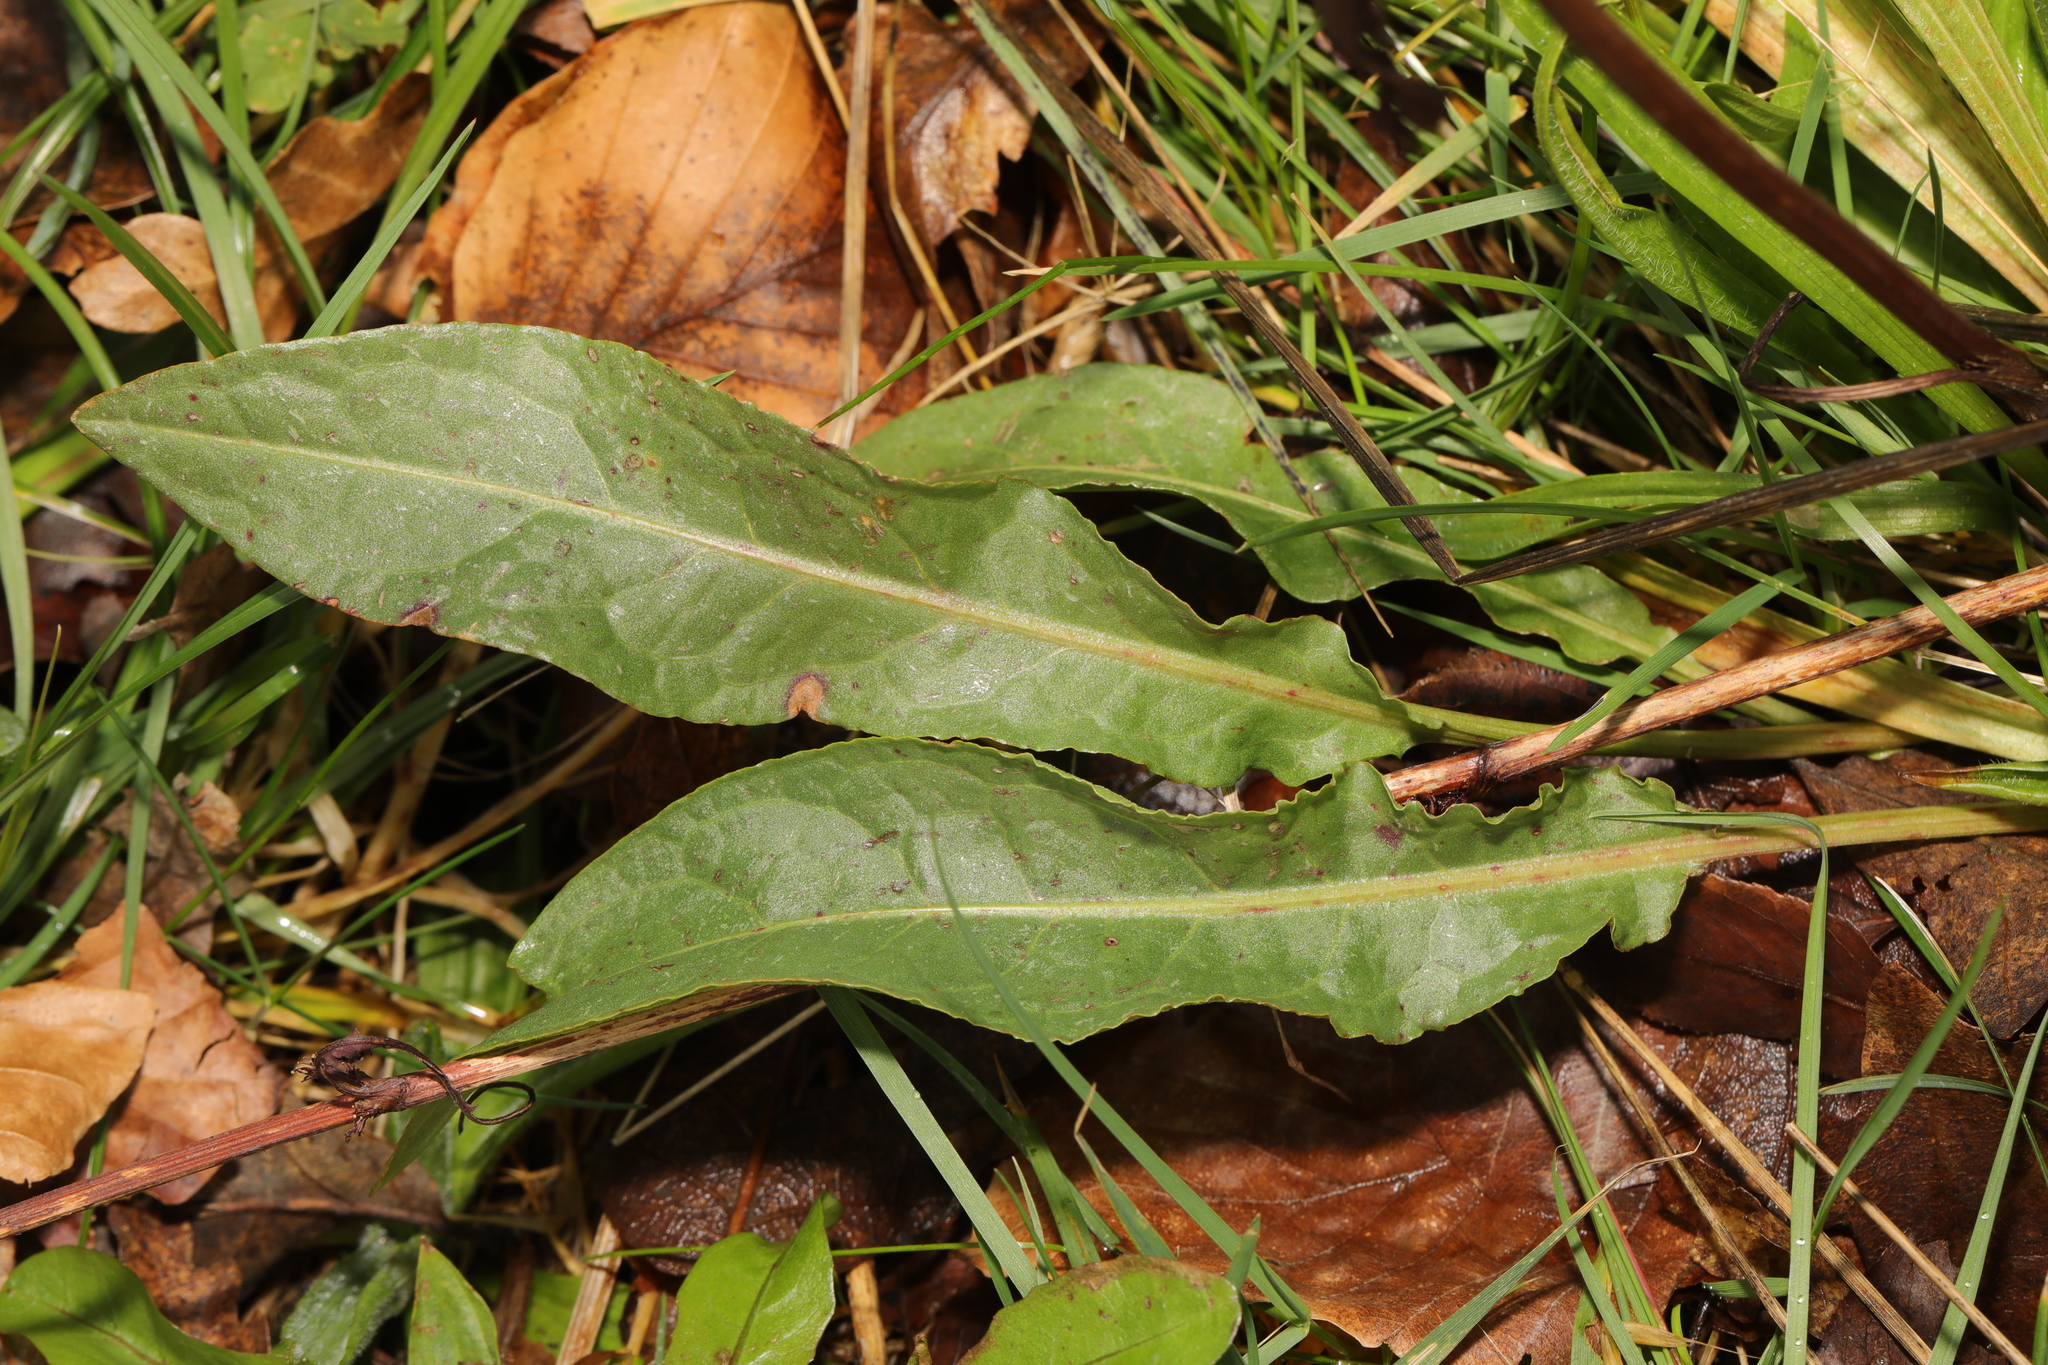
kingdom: Plantae
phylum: Tracheophyta
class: Magnoliopsida
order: Caryophyllales
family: Polygonaceae
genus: Rumex
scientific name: Rumex crispus
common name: Curled dock
